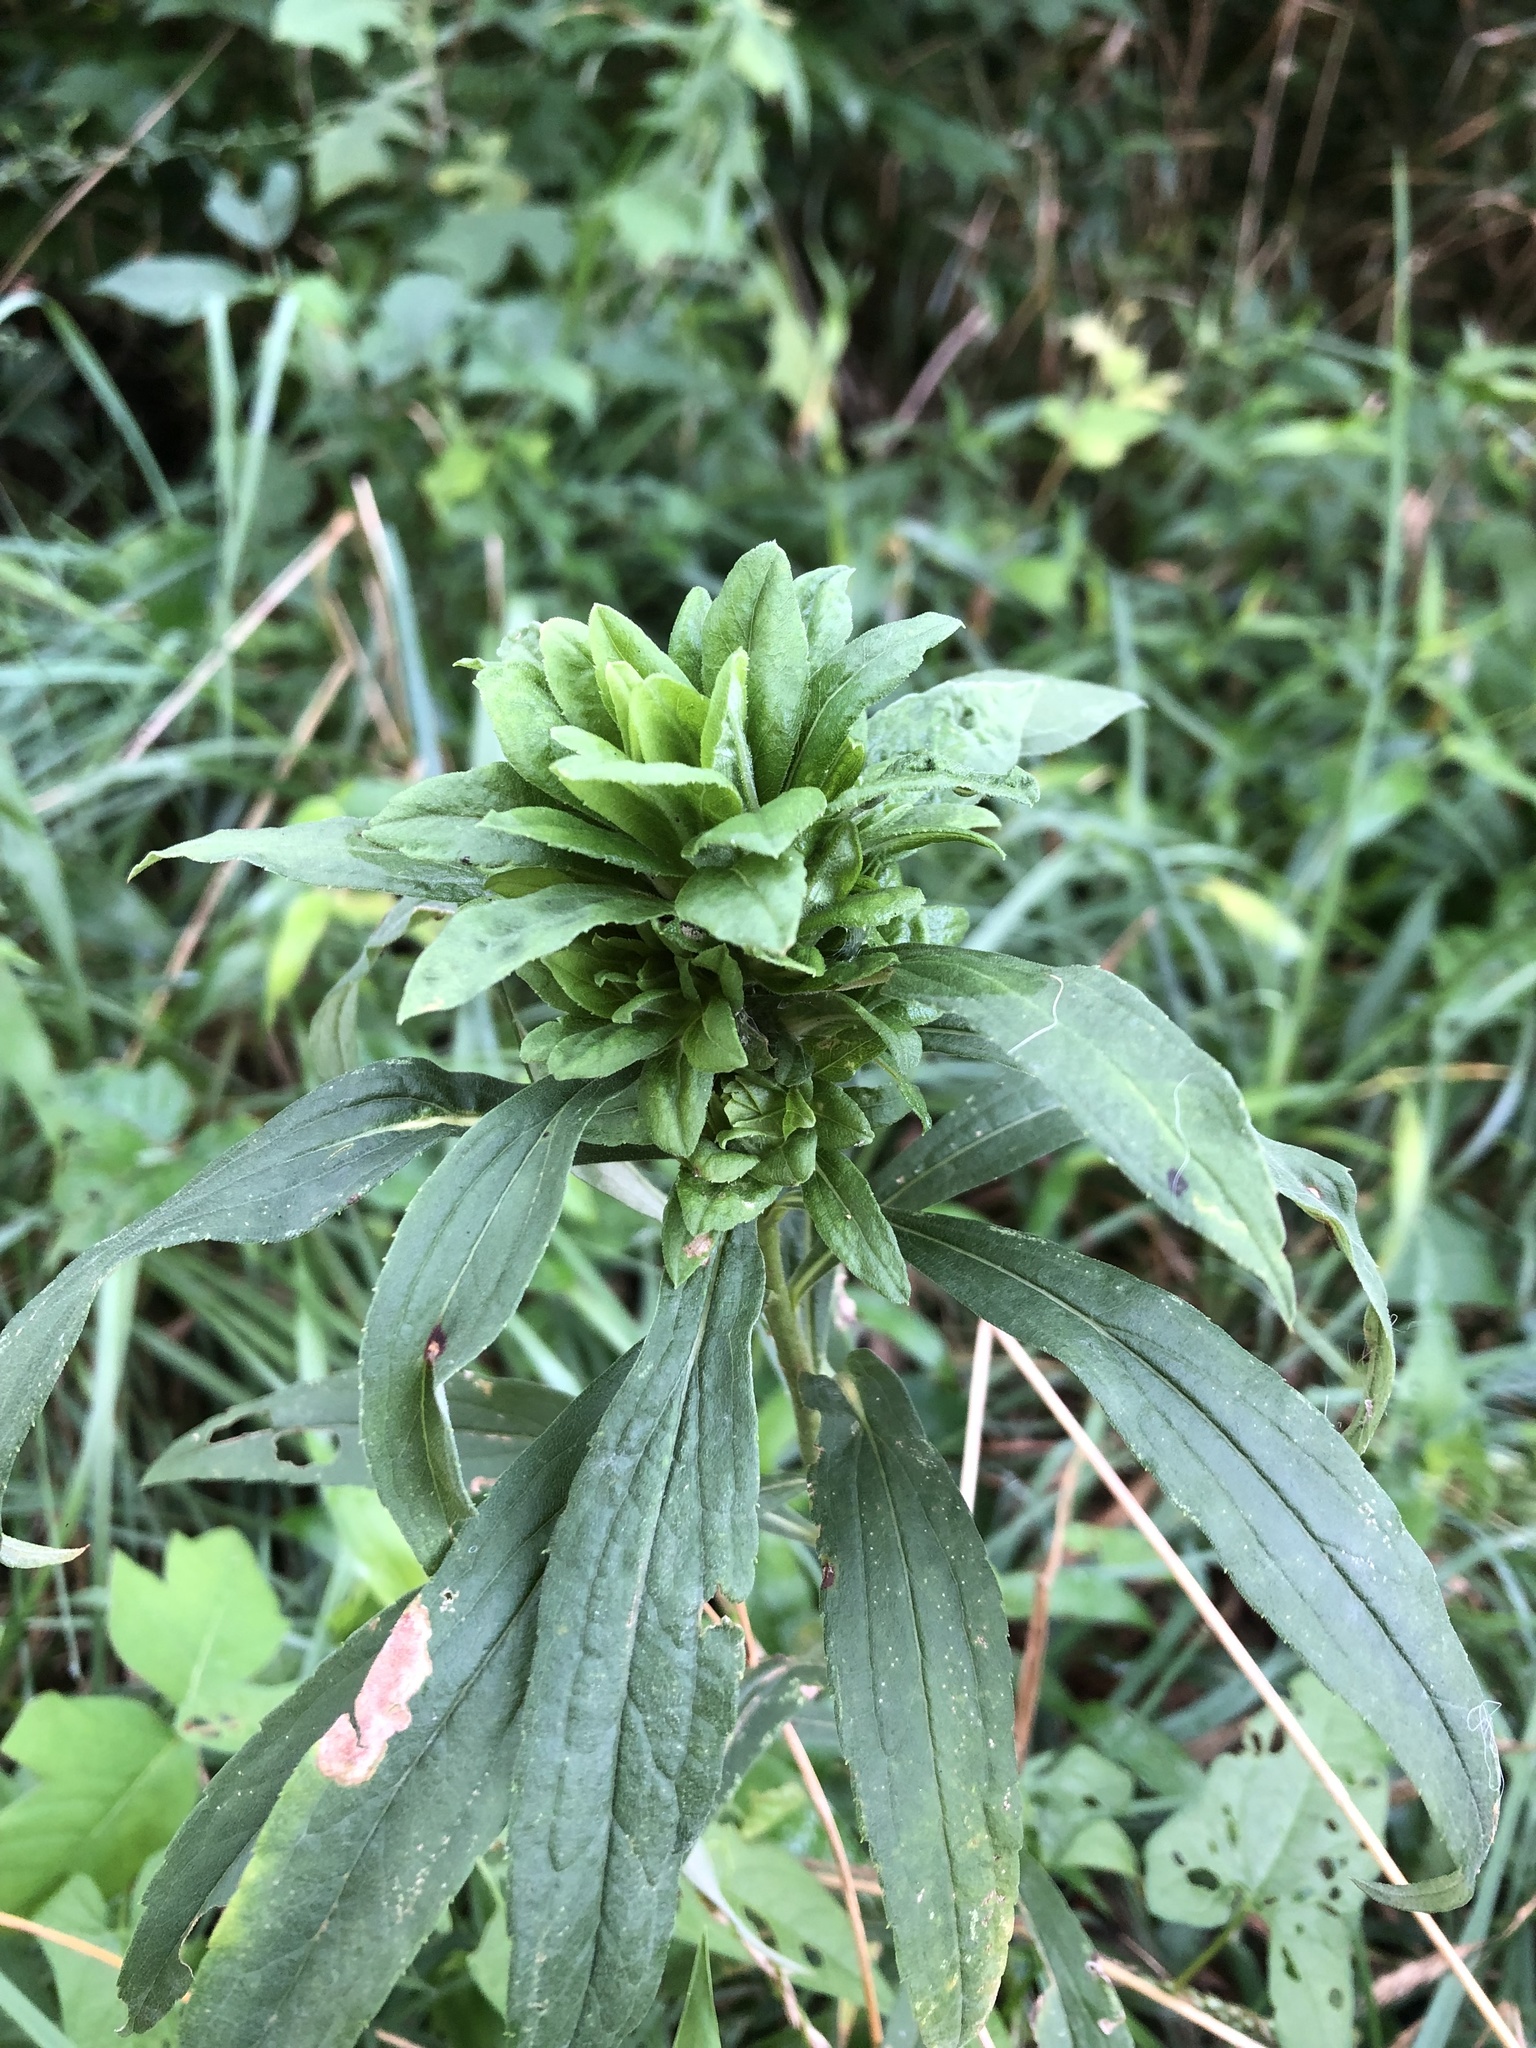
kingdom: Animalia
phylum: Arthropoda
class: Insecta
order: Diptera
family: Tephritidae
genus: Procecidochares
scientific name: Procecidochares atra
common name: Goldenrod brussels sprout gall fly
